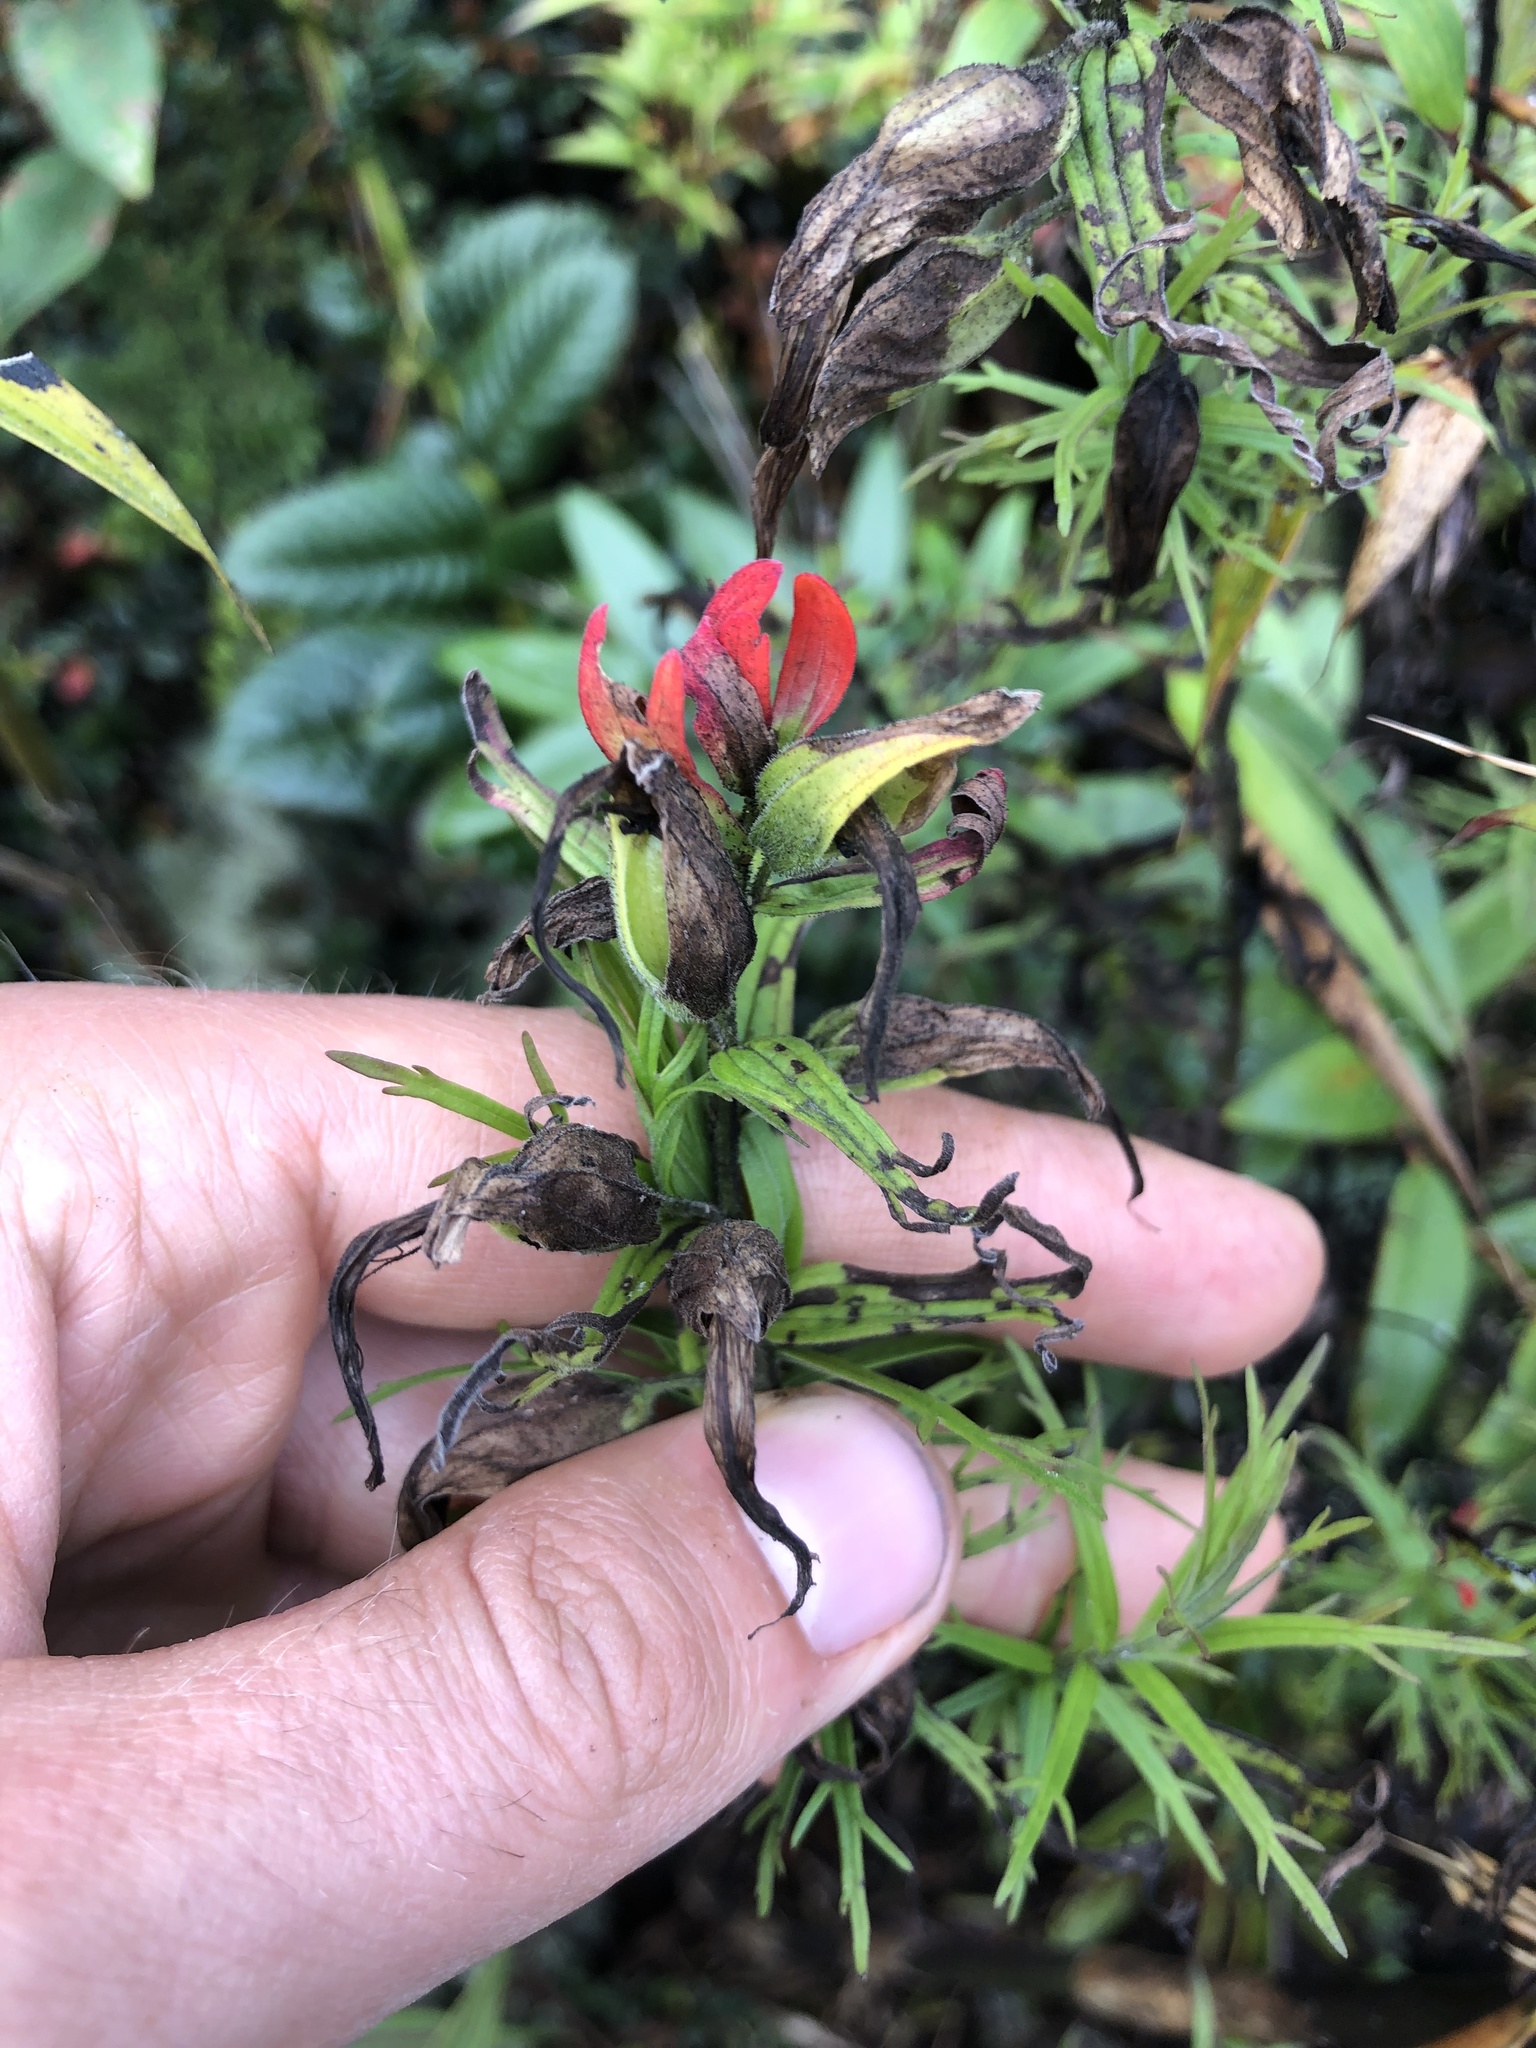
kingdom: Plantae
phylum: Tracheophyta
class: Magnoliopsida
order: Lamiales
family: Orobanchaceae
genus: Castilleja
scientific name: Castilleja fissifolia
